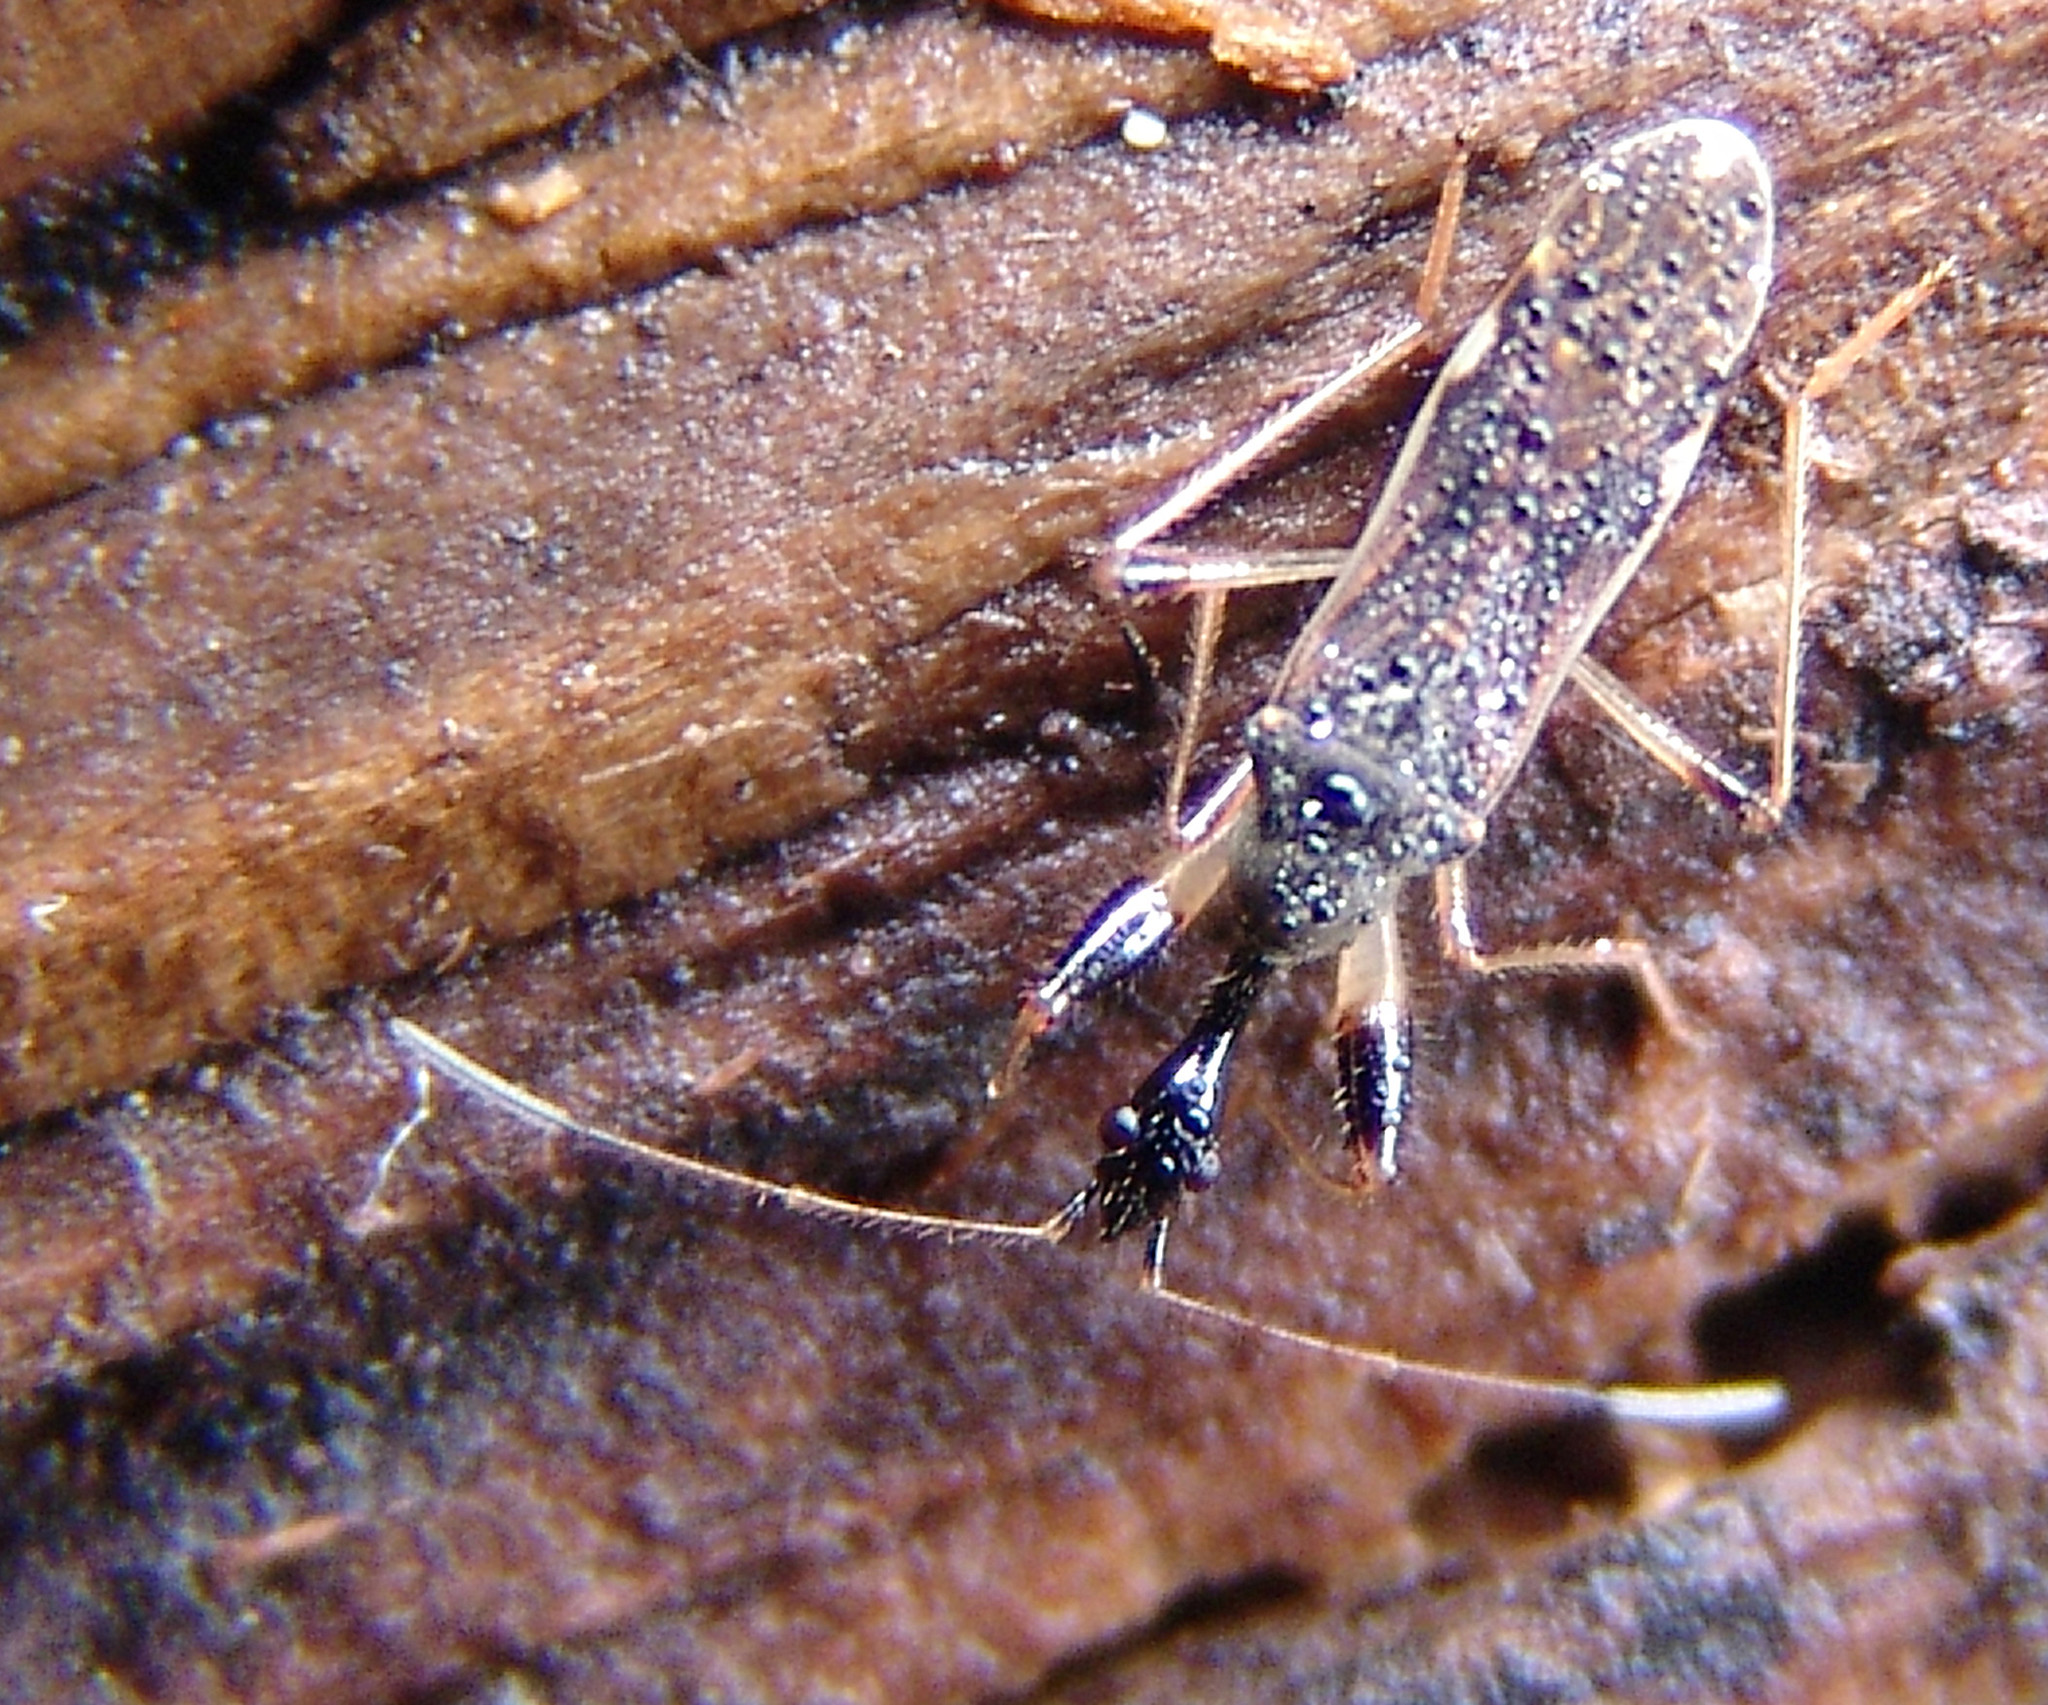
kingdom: Animalia
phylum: Arthropoda
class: Insecta
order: Hemiptera
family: Rhyparochromidae
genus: Myodocha
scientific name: Myodocha serripes
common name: Long-necked seed bug
